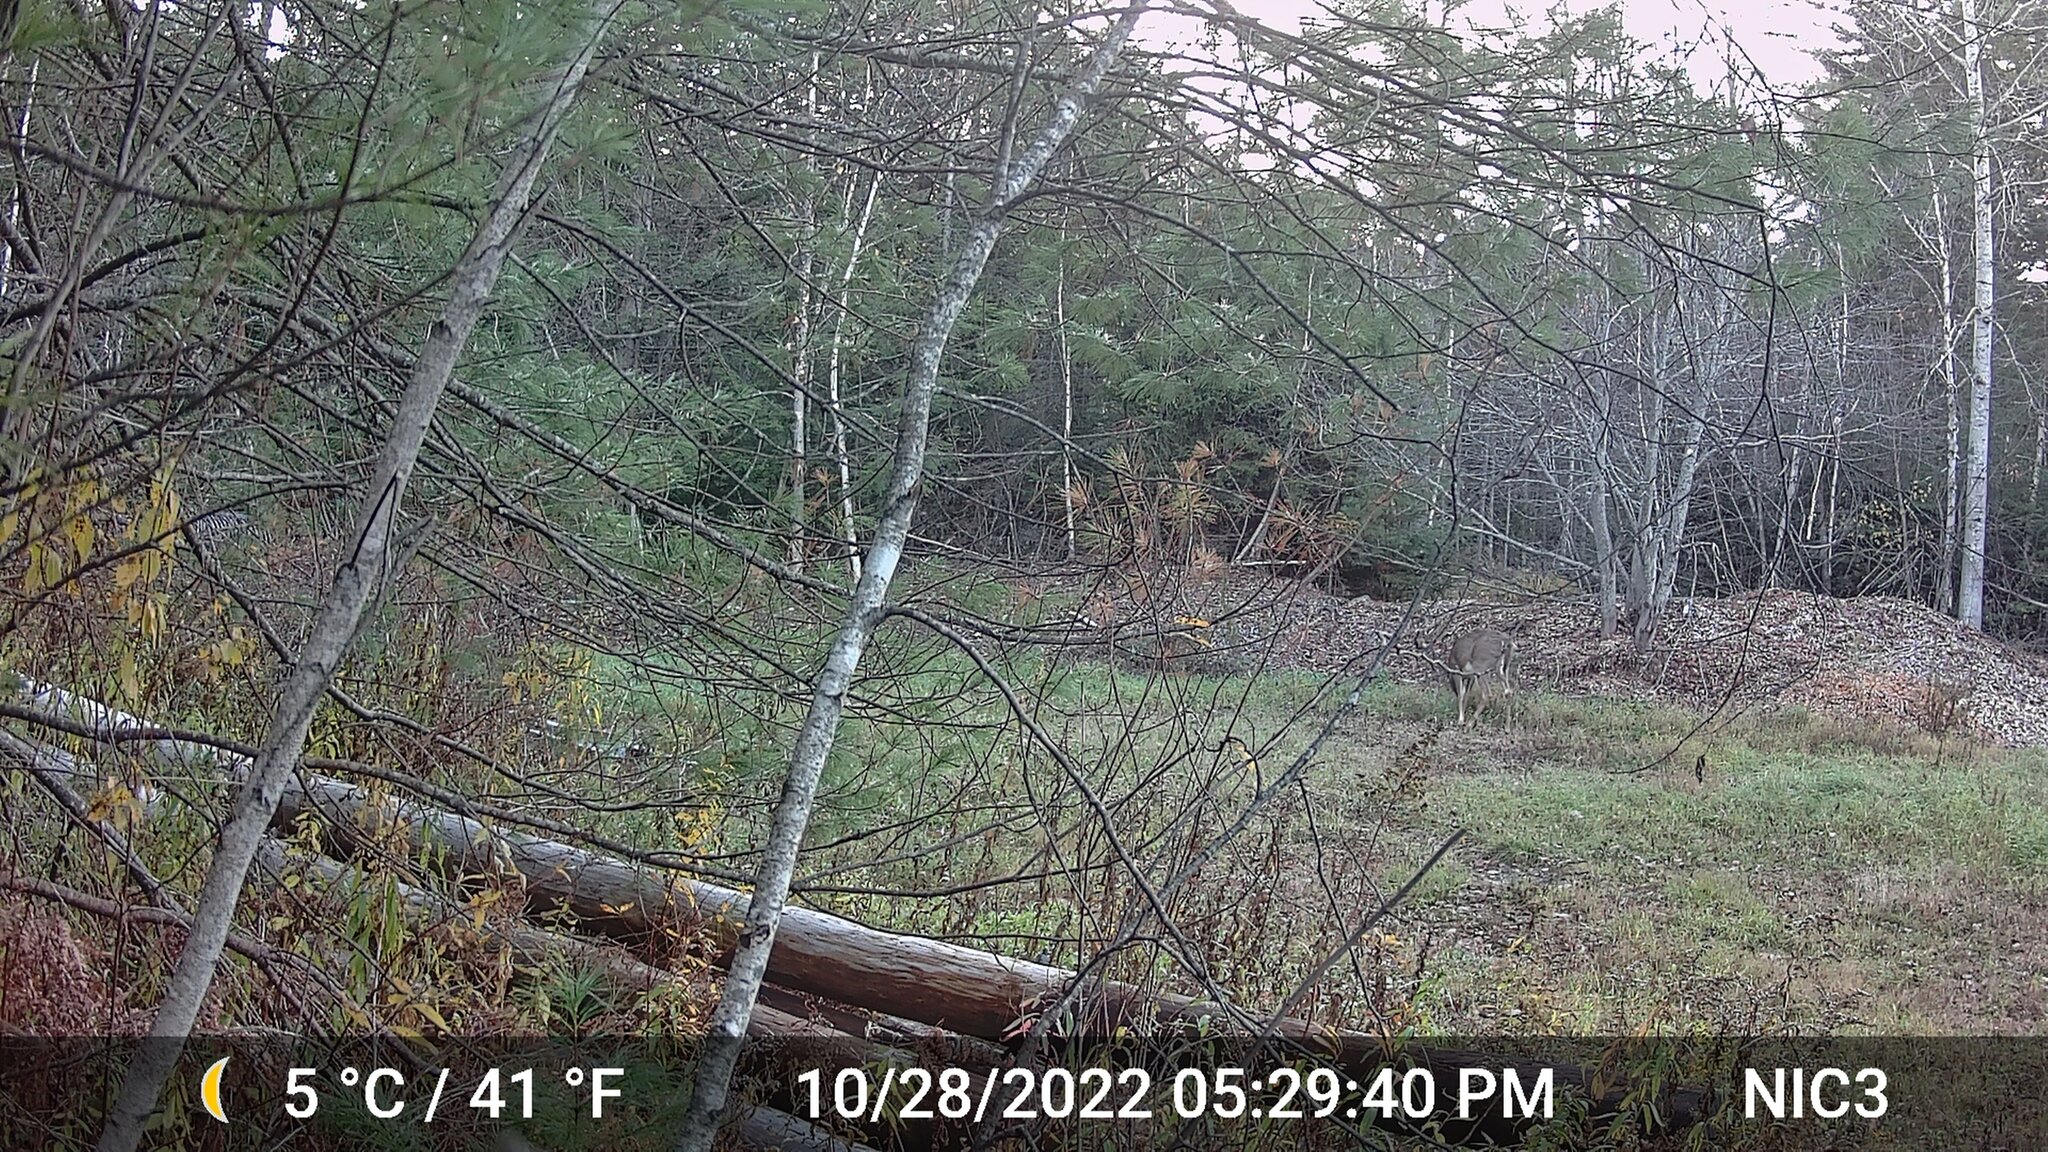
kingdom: Animalia
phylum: Chordata
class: Mammalia
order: Artiodactyla
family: Cervidae
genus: Odocoileus
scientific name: Odocoileus virginianus
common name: White-tailed deer
